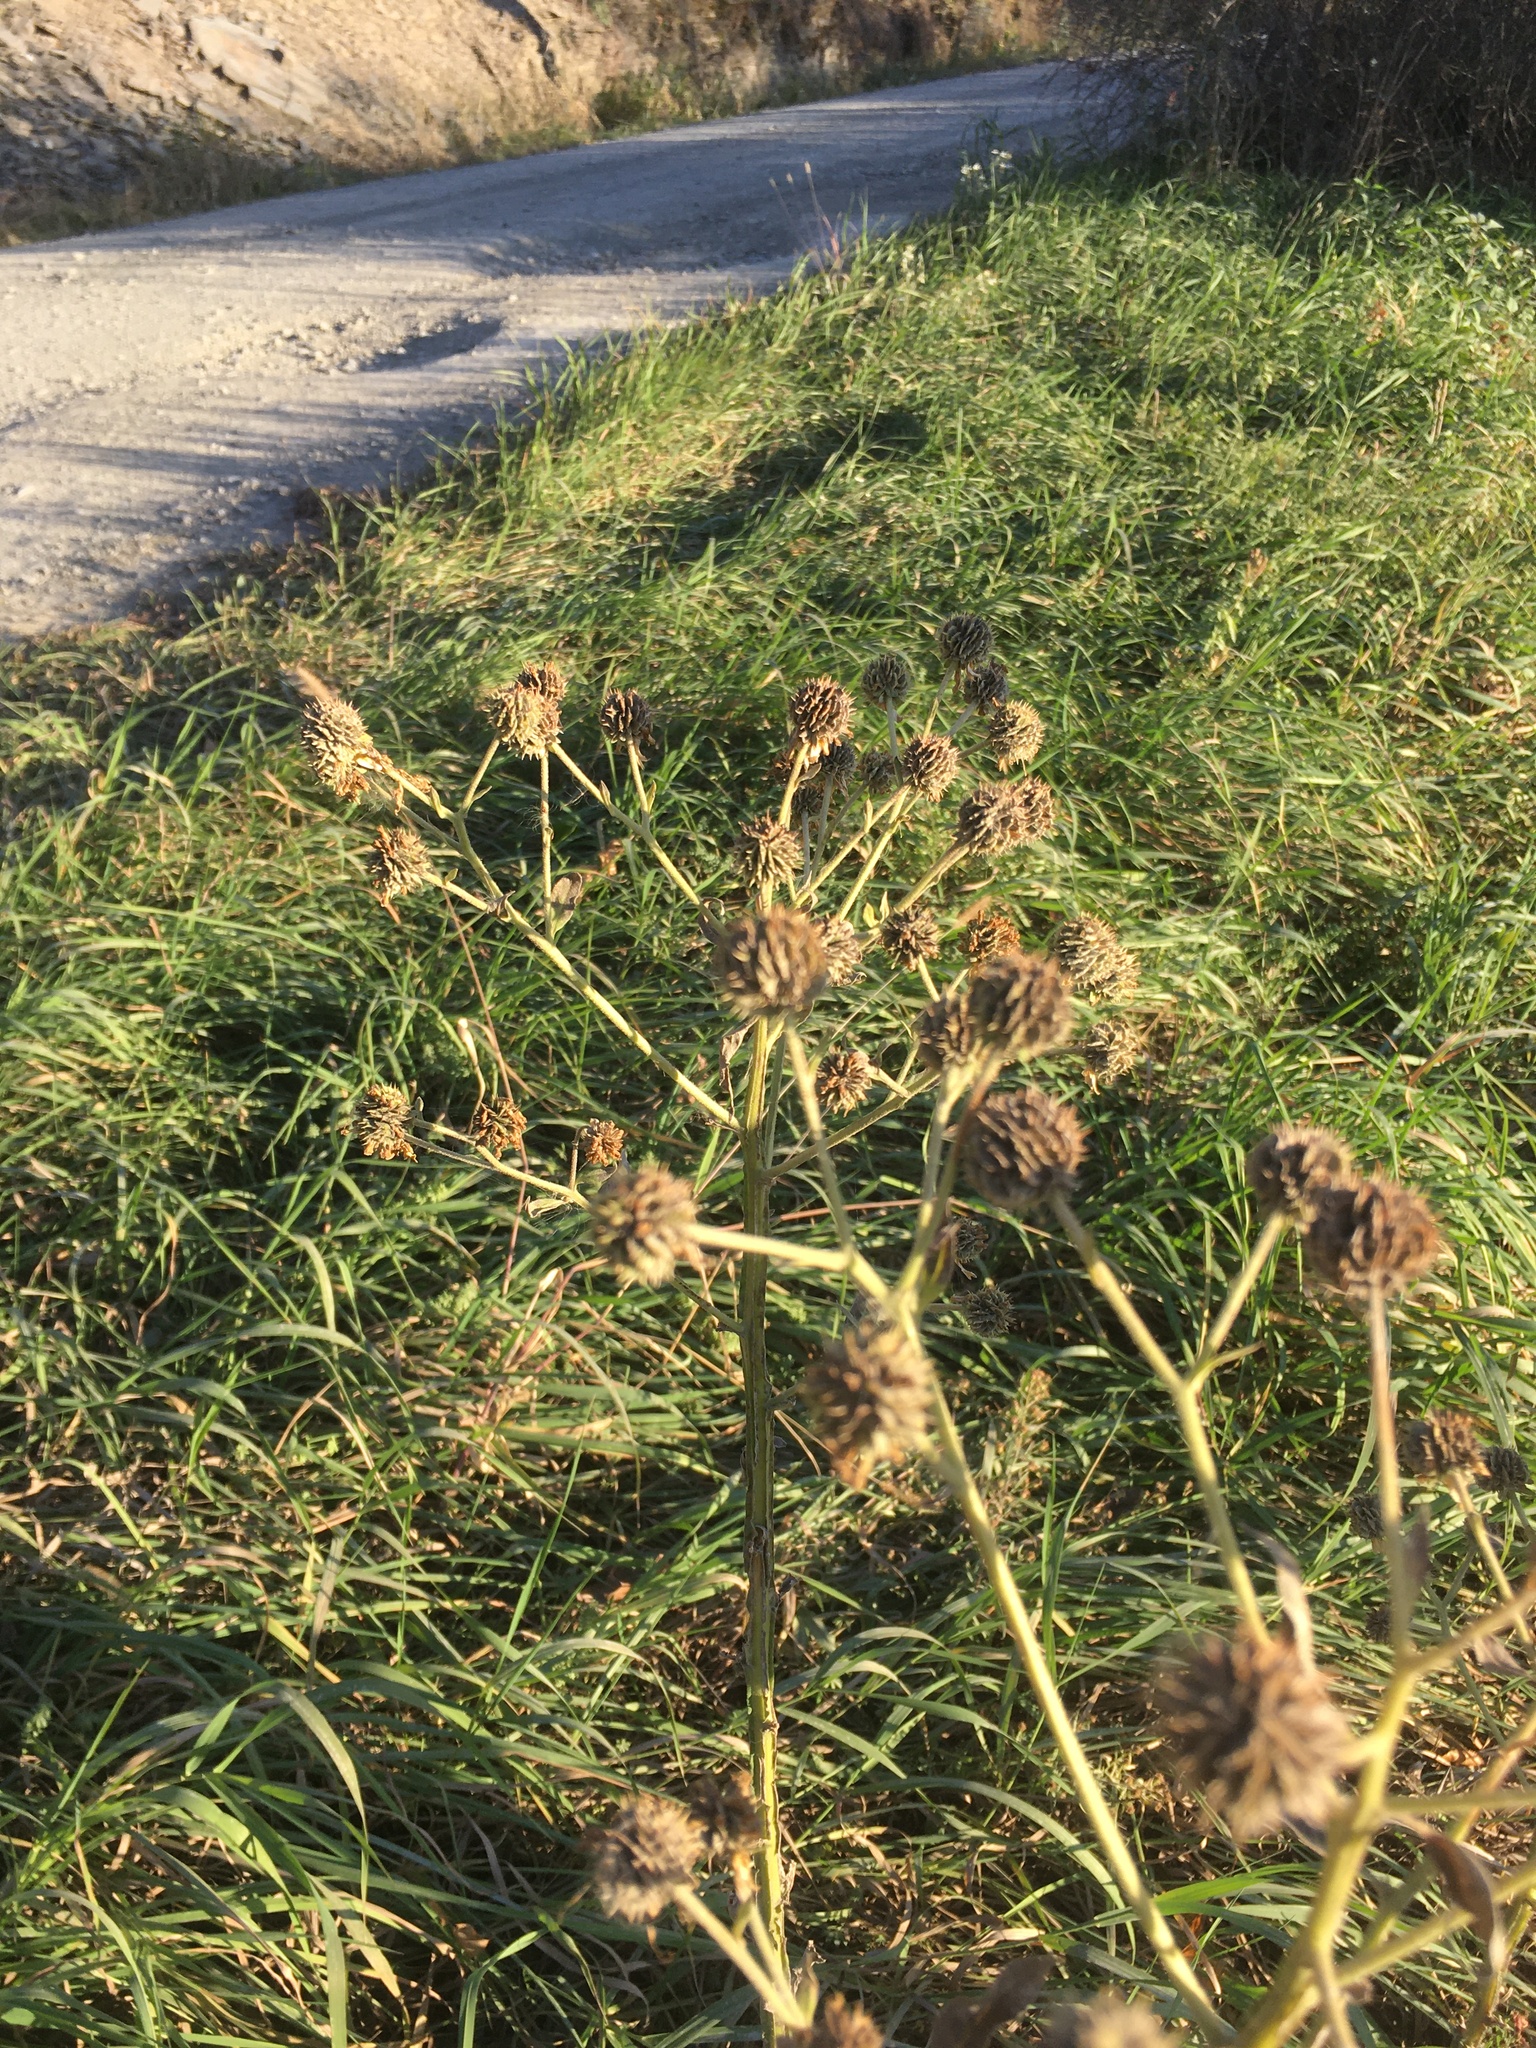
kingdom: Plantae
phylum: Tracheophyta
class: Magnoliopsida
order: Asterales
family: Asteraceae
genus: Verbesina
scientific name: Verbesina alternifolia
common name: Wingstem
